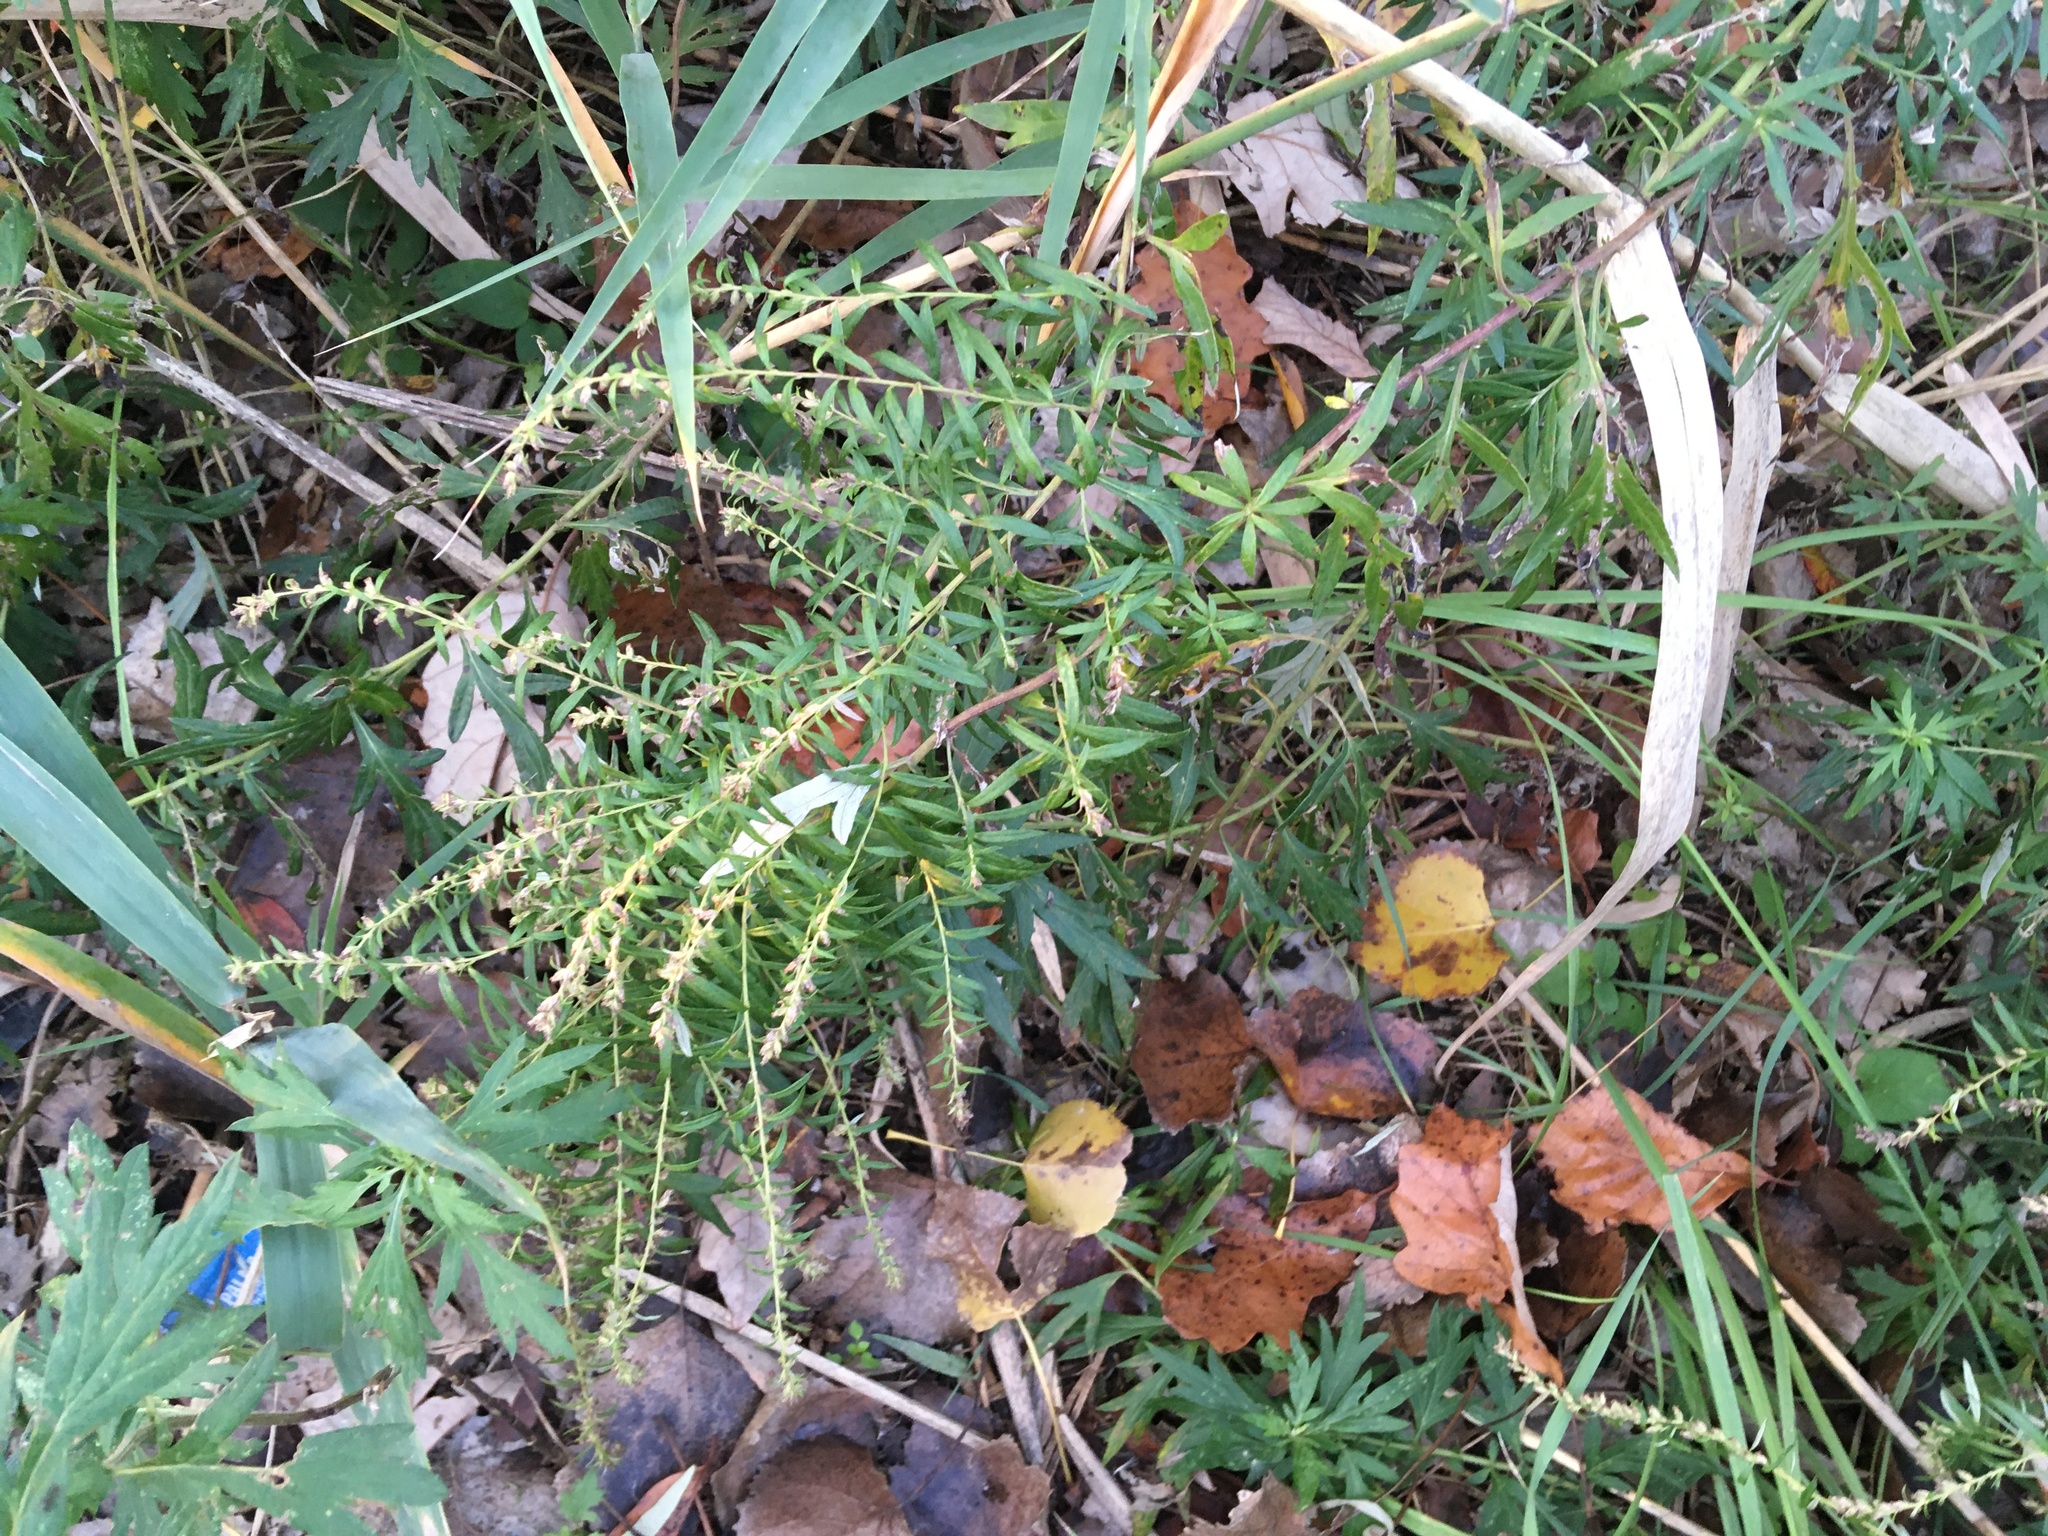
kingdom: Plantae
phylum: Tracheophyta
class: Magnoliopsida
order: Asterales
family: Asteraceae
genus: Artemisia
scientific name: Artemisia vulgaris
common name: Mugwort
